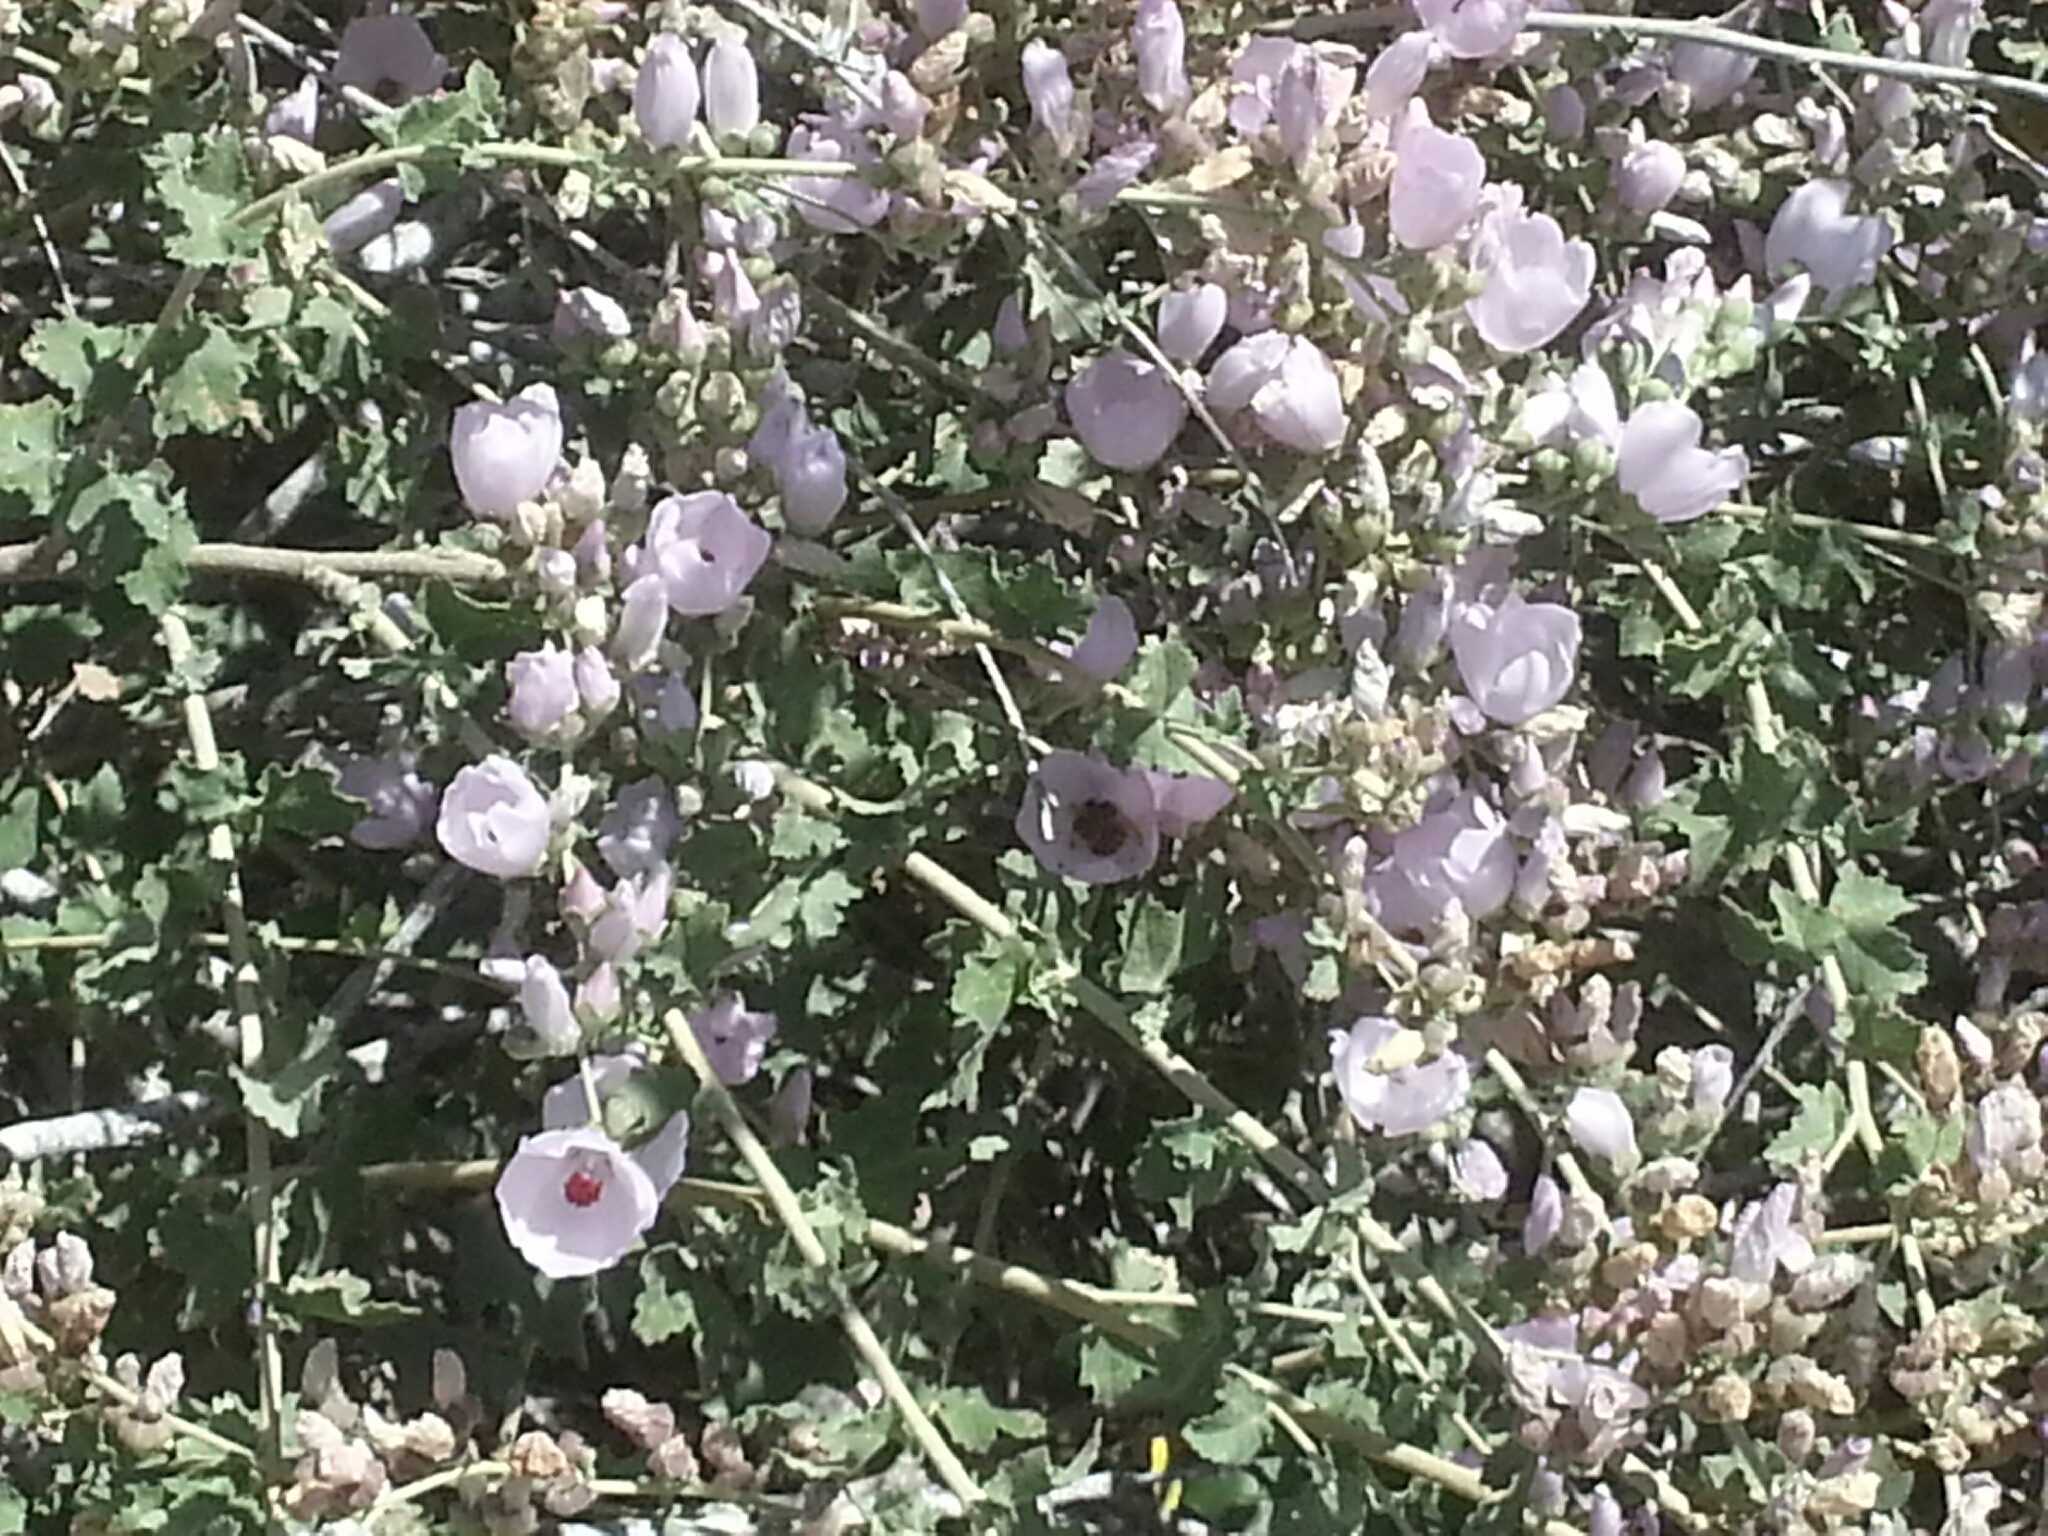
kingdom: Plantae
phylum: Tracheophyta
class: Magnoliopsida
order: Malvales
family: Malvaceae
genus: Malacothamnus
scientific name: Malacothamnus fasciculatus
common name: Sant cruz island bush-mallow
